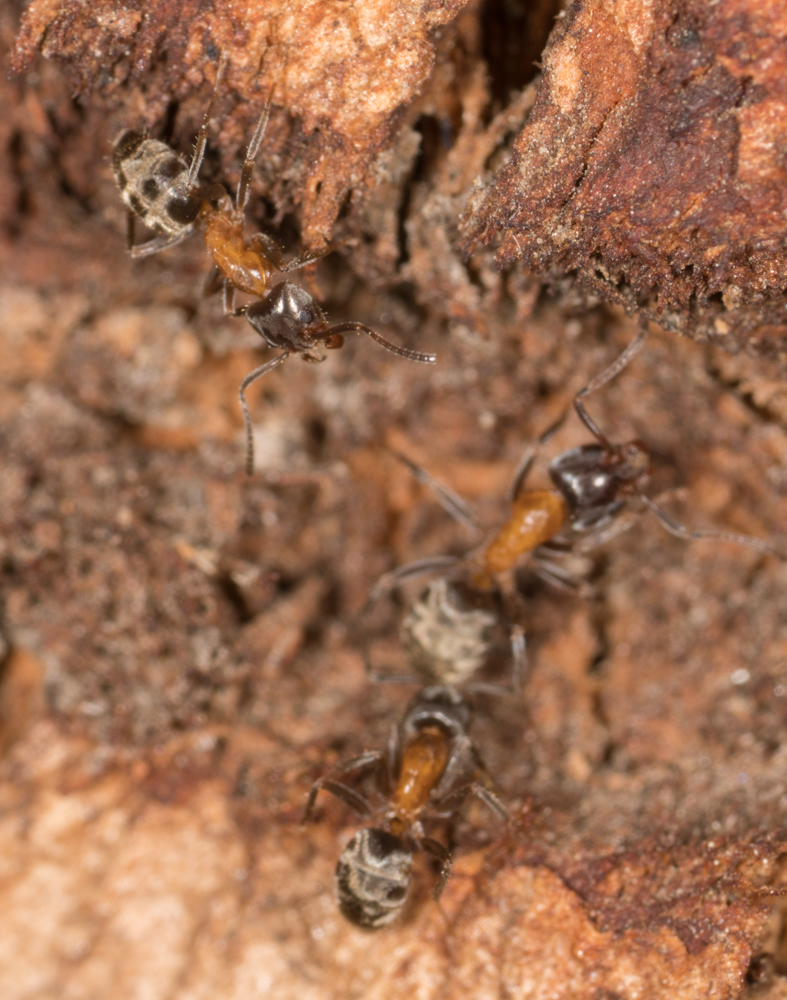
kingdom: Animalia
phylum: Arthropoda
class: Insecta
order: Hymenoptera
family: Formicidae
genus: Liometopum
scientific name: Liometopum occidentale
